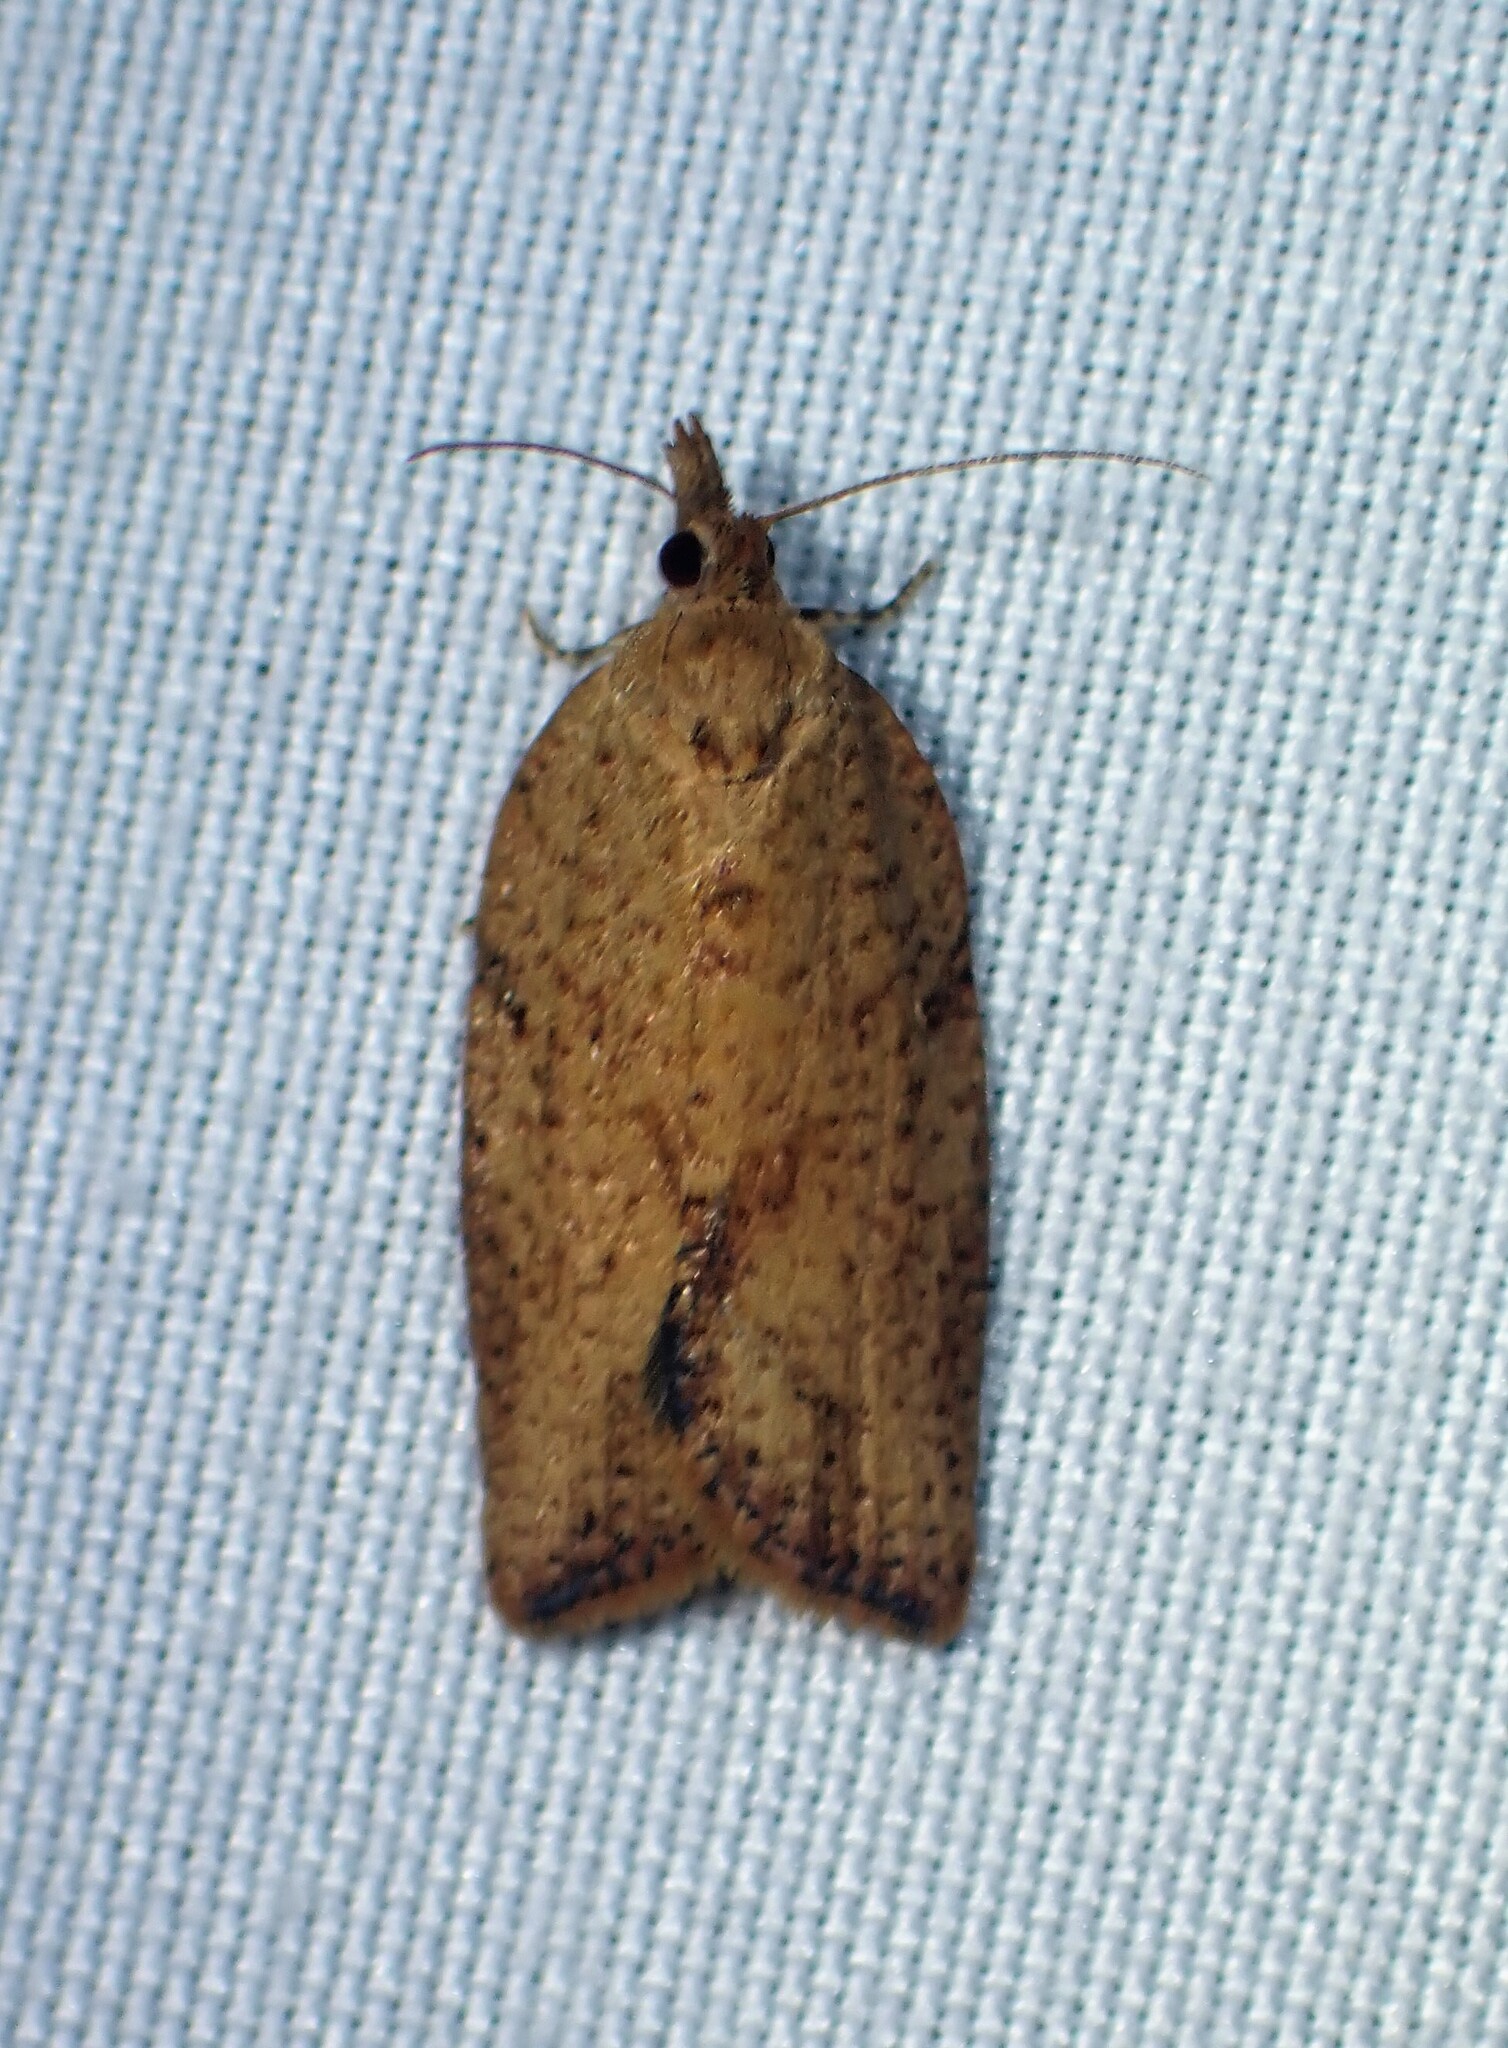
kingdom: Animalia
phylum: Arthropoda
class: Insecta
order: Lepidoptera
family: Tortricidae
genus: Epiphyas
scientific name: Epiphyas postvittana
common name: Light brown apple moth
